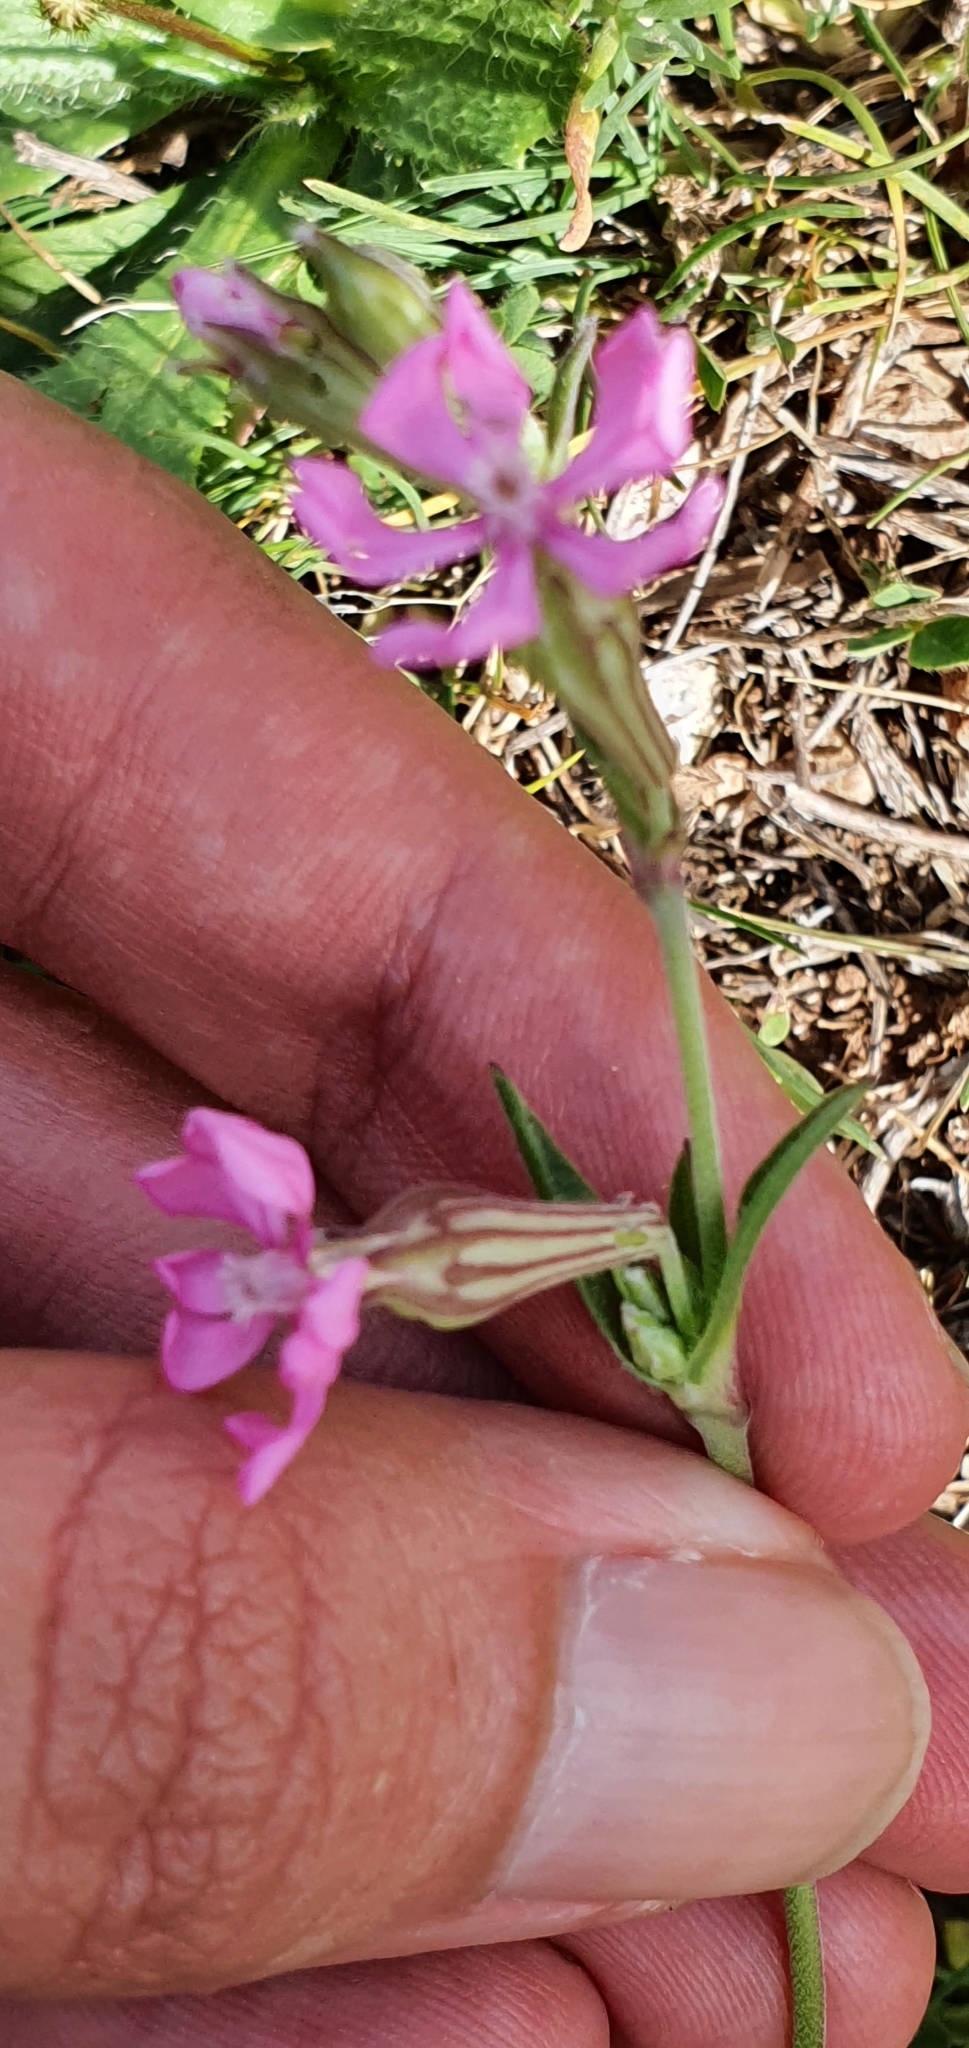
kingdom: Plantae
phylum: Tracheophyta
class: Magnoliopsida
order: Caryophyllales
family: Caryophyllaceae
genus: Silene
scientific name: Silene colorata
